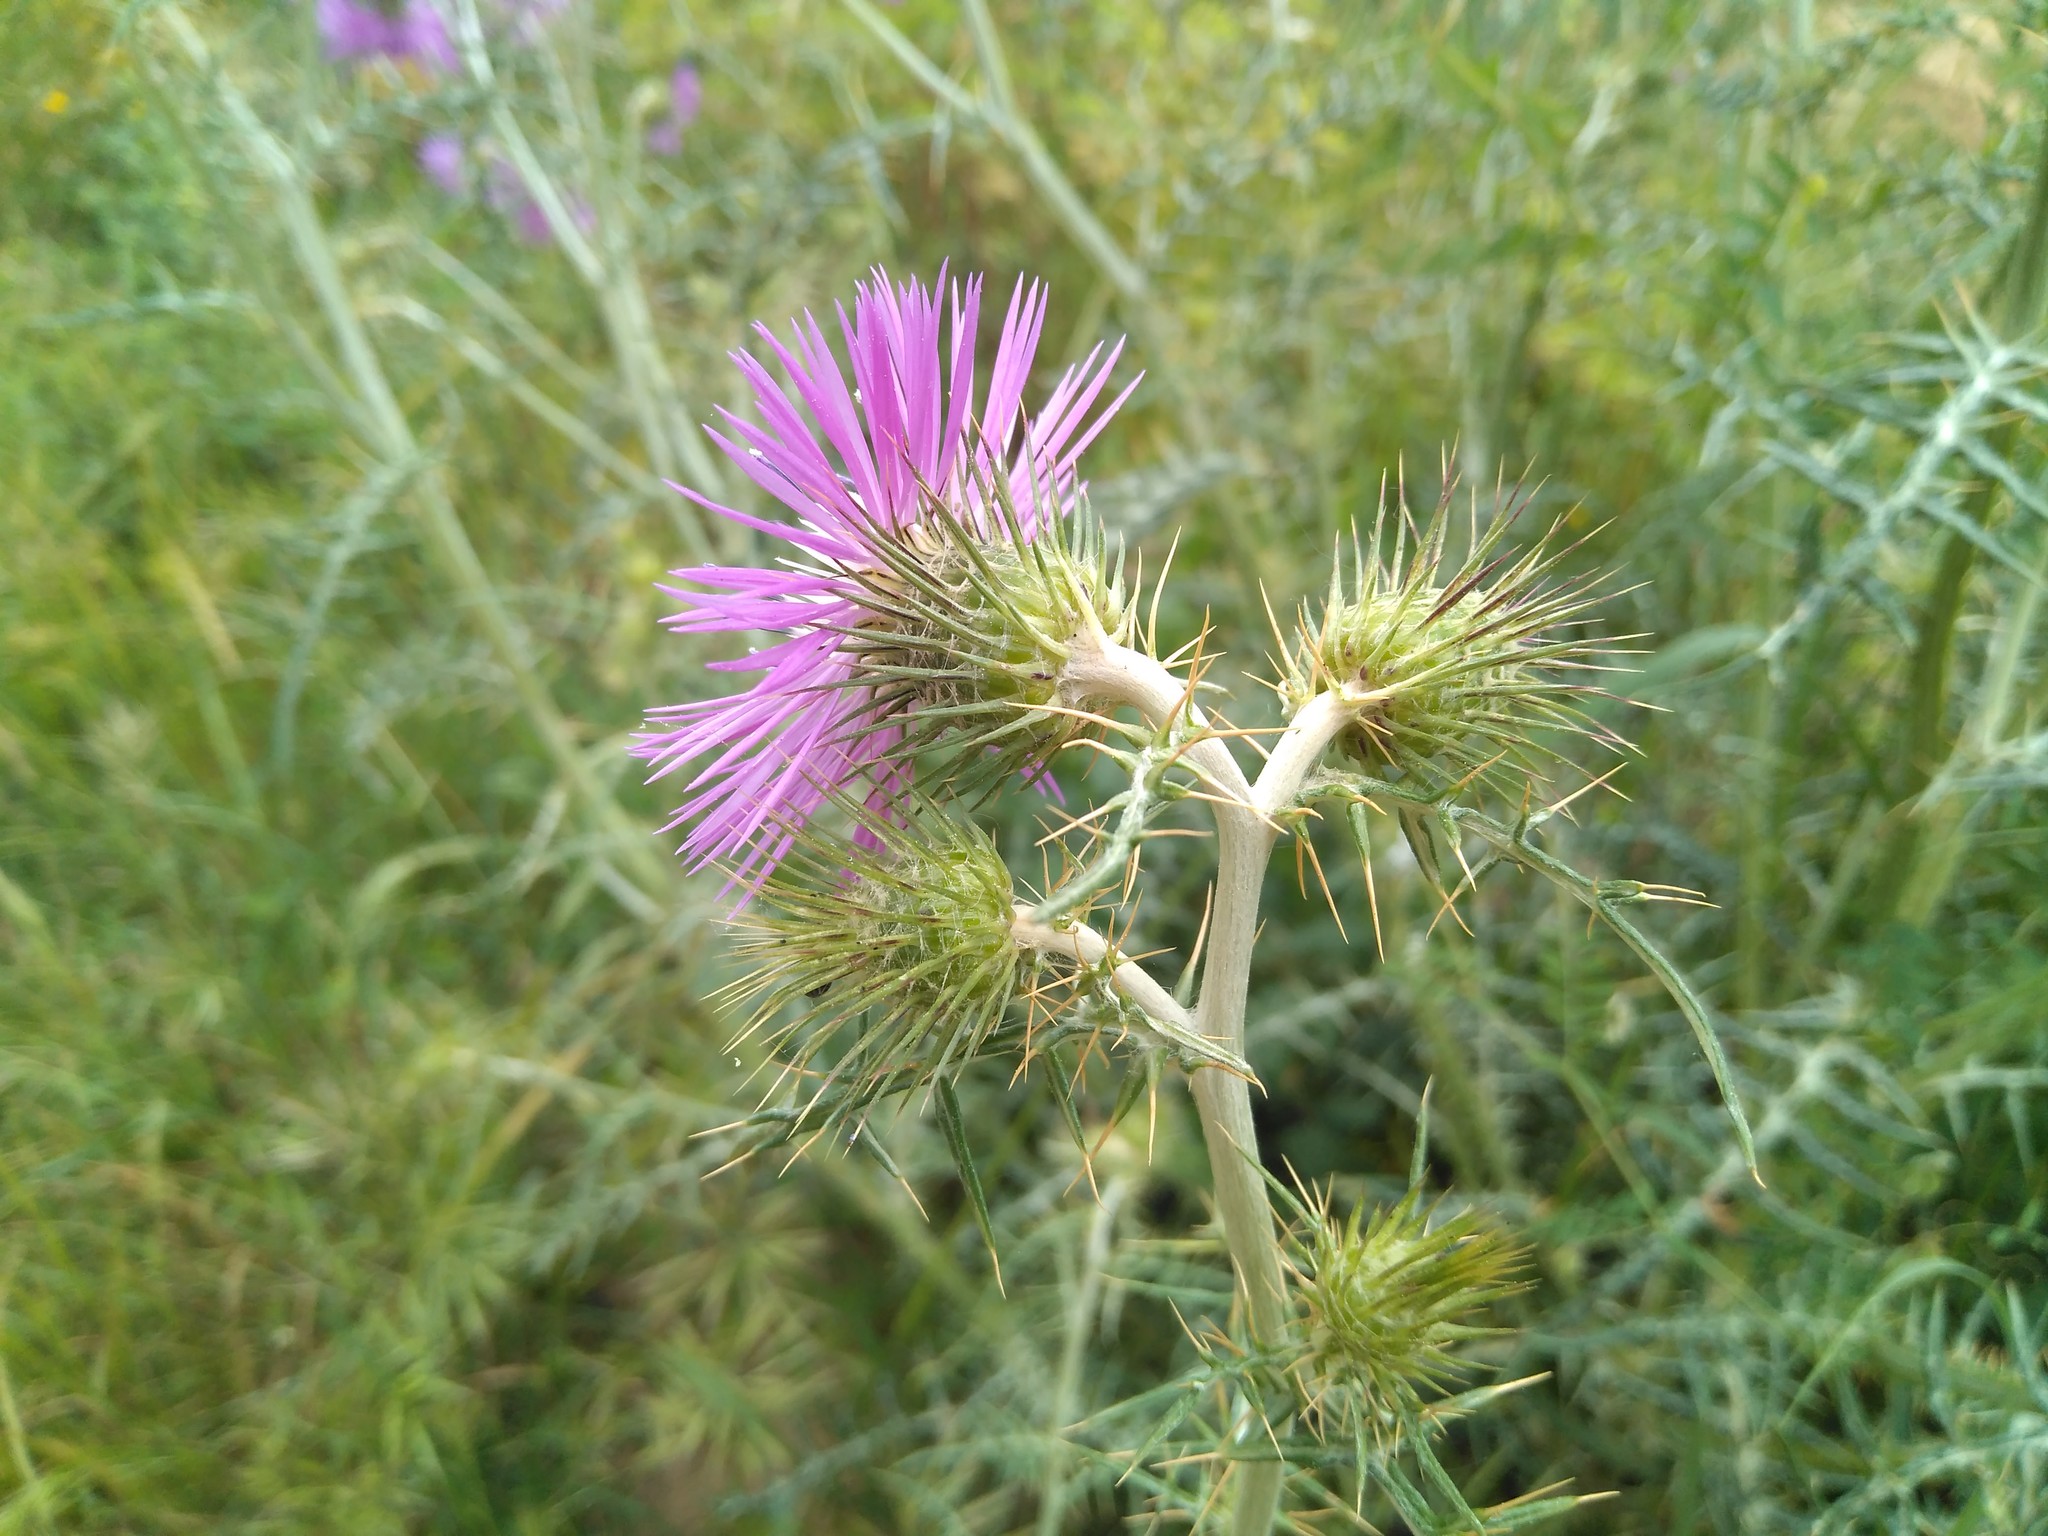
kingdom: Plantae
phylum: Tracheophyta
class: Magnoliopsida
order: Asterales
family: Asteraceae
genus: Galactites
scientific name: Galactites tomentosa
